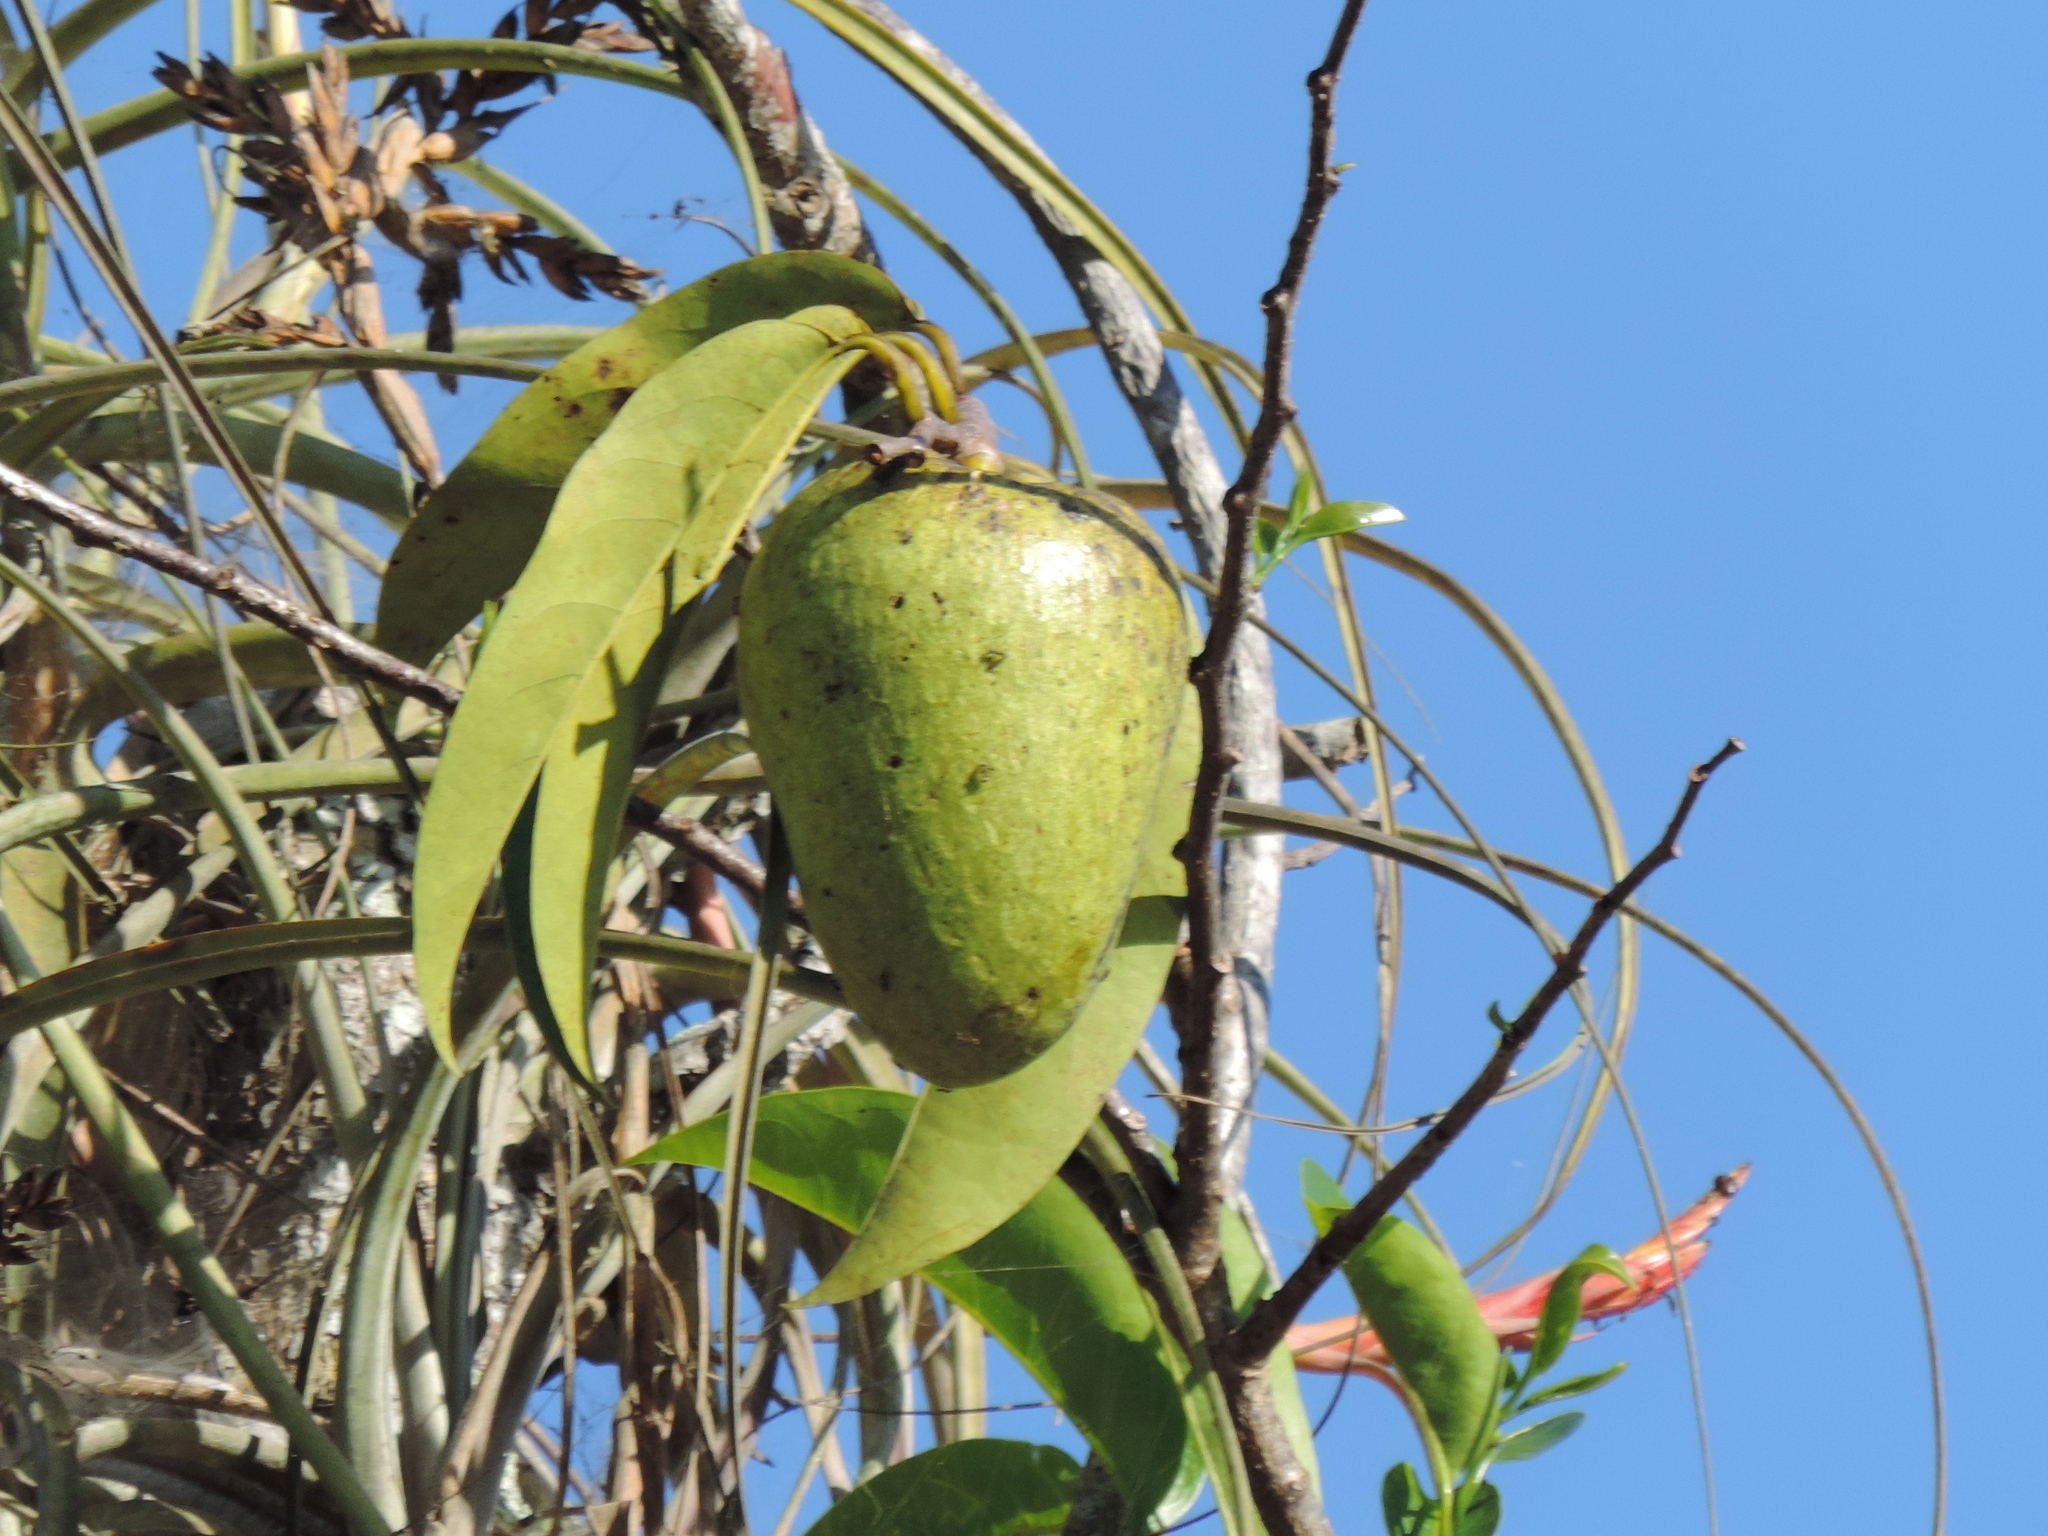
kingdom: Plantae
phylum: Tracheophyta
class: Magnoliopsida
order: Magnoliales
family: Annonaceae
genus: Annona
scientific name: Annona glabra
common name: Monkey apple
